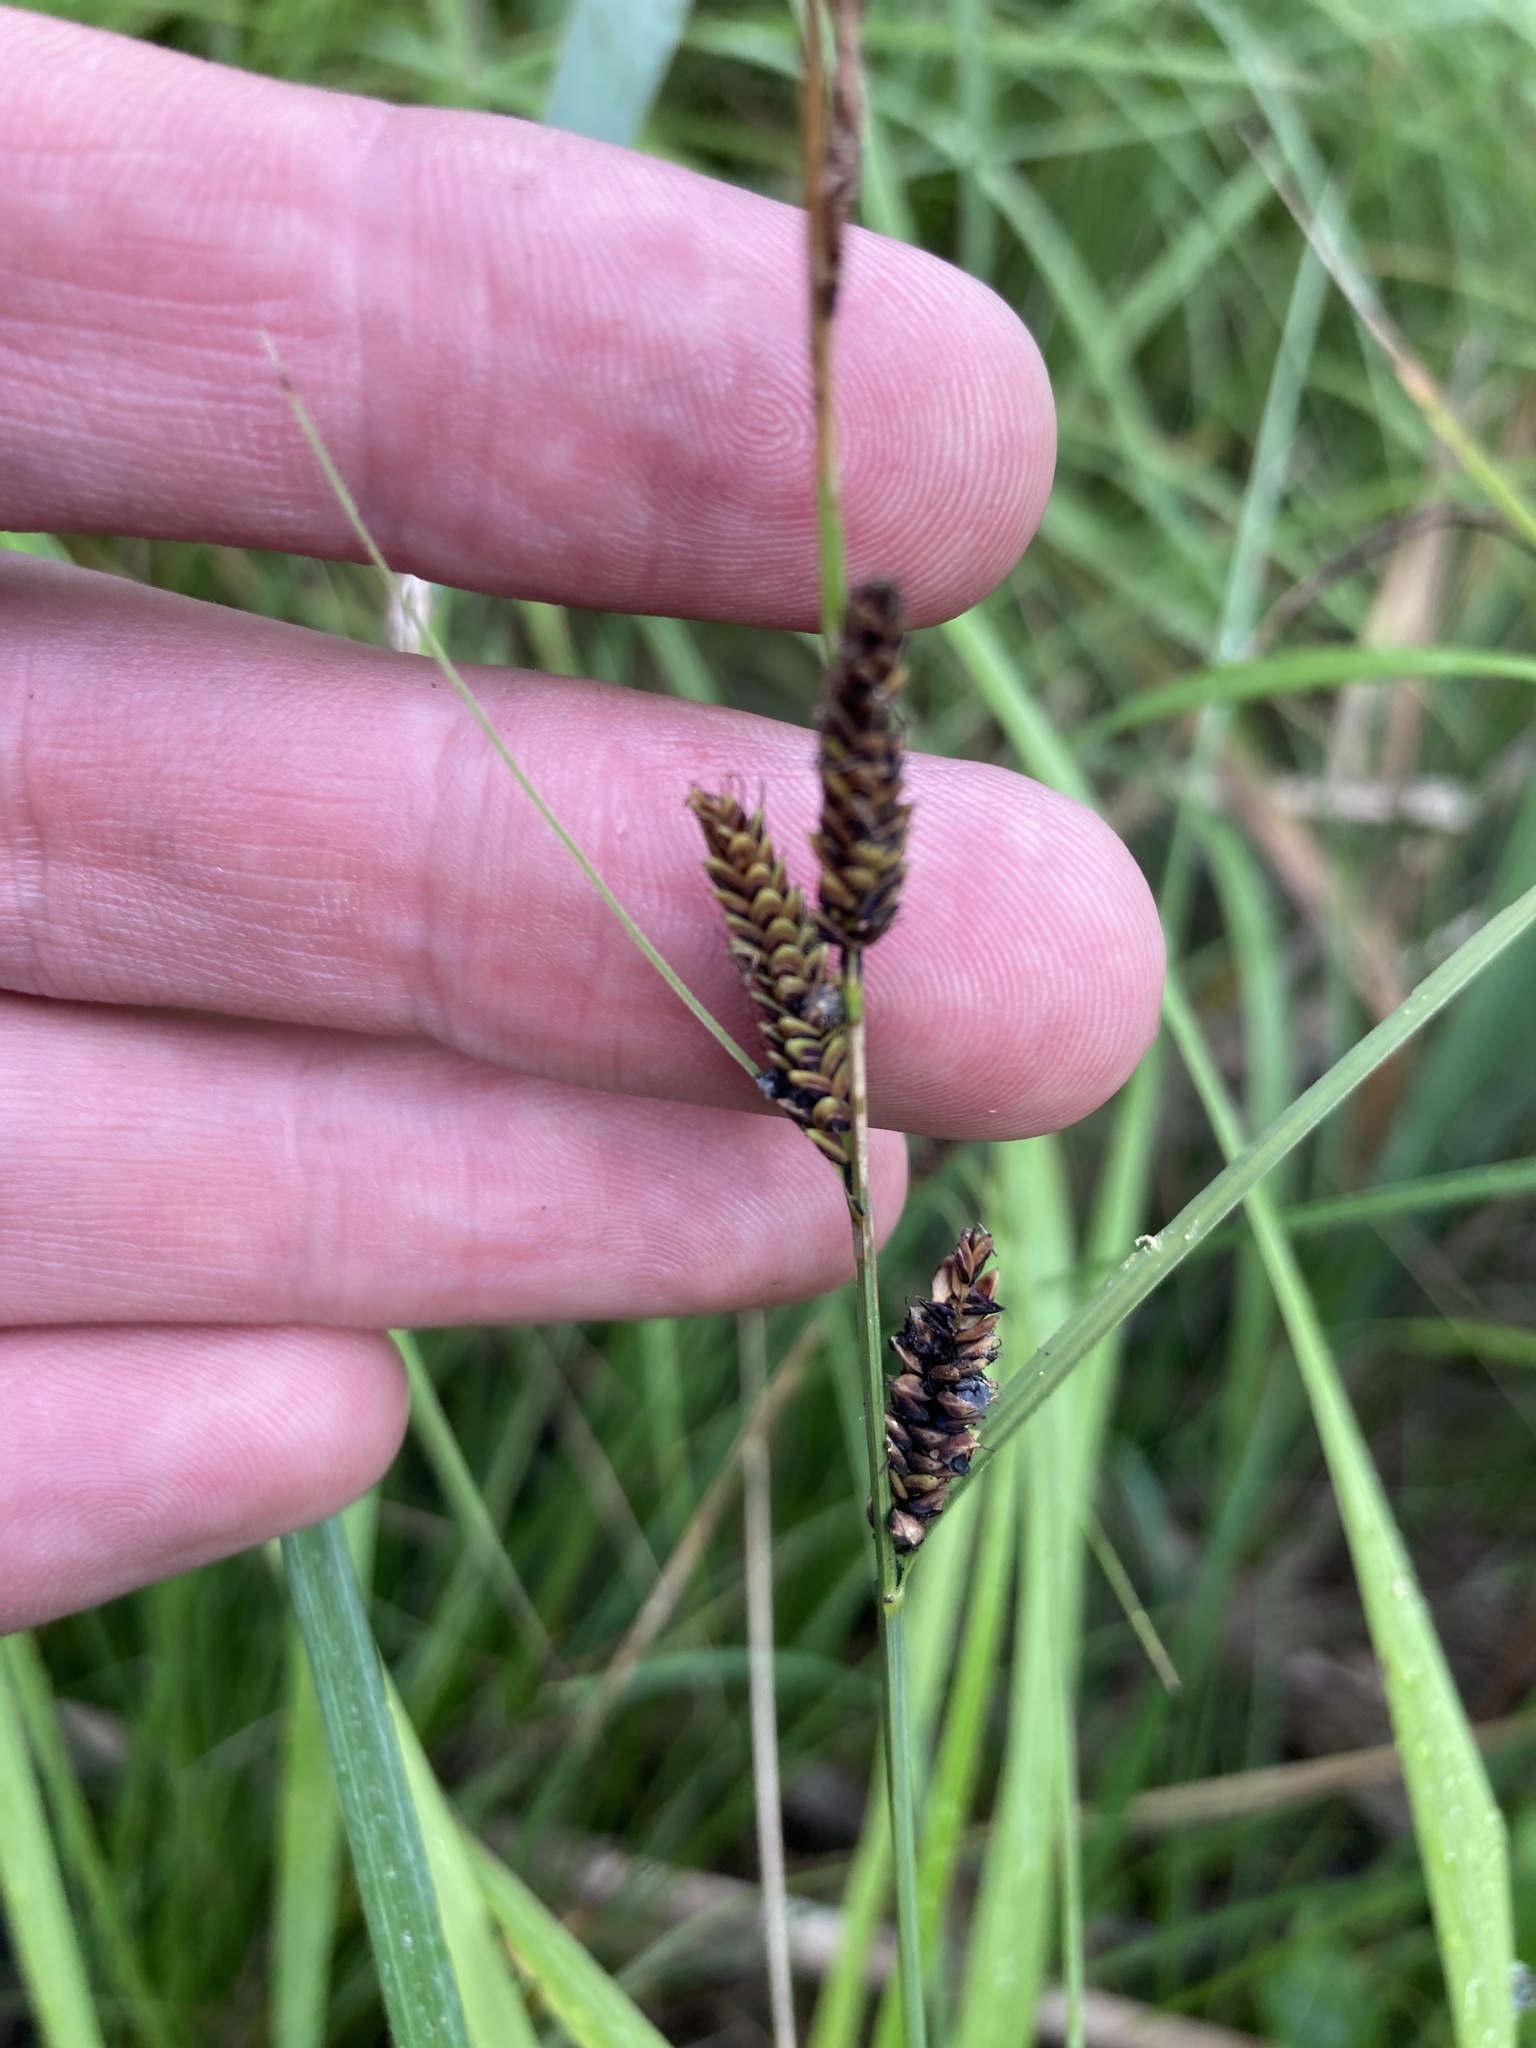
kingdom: Plantae
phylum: Tracheophyta
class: Liliopsida
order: Poales
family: Cyperaceae
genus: Carex
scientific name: Carex nigra
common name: Common sedge
